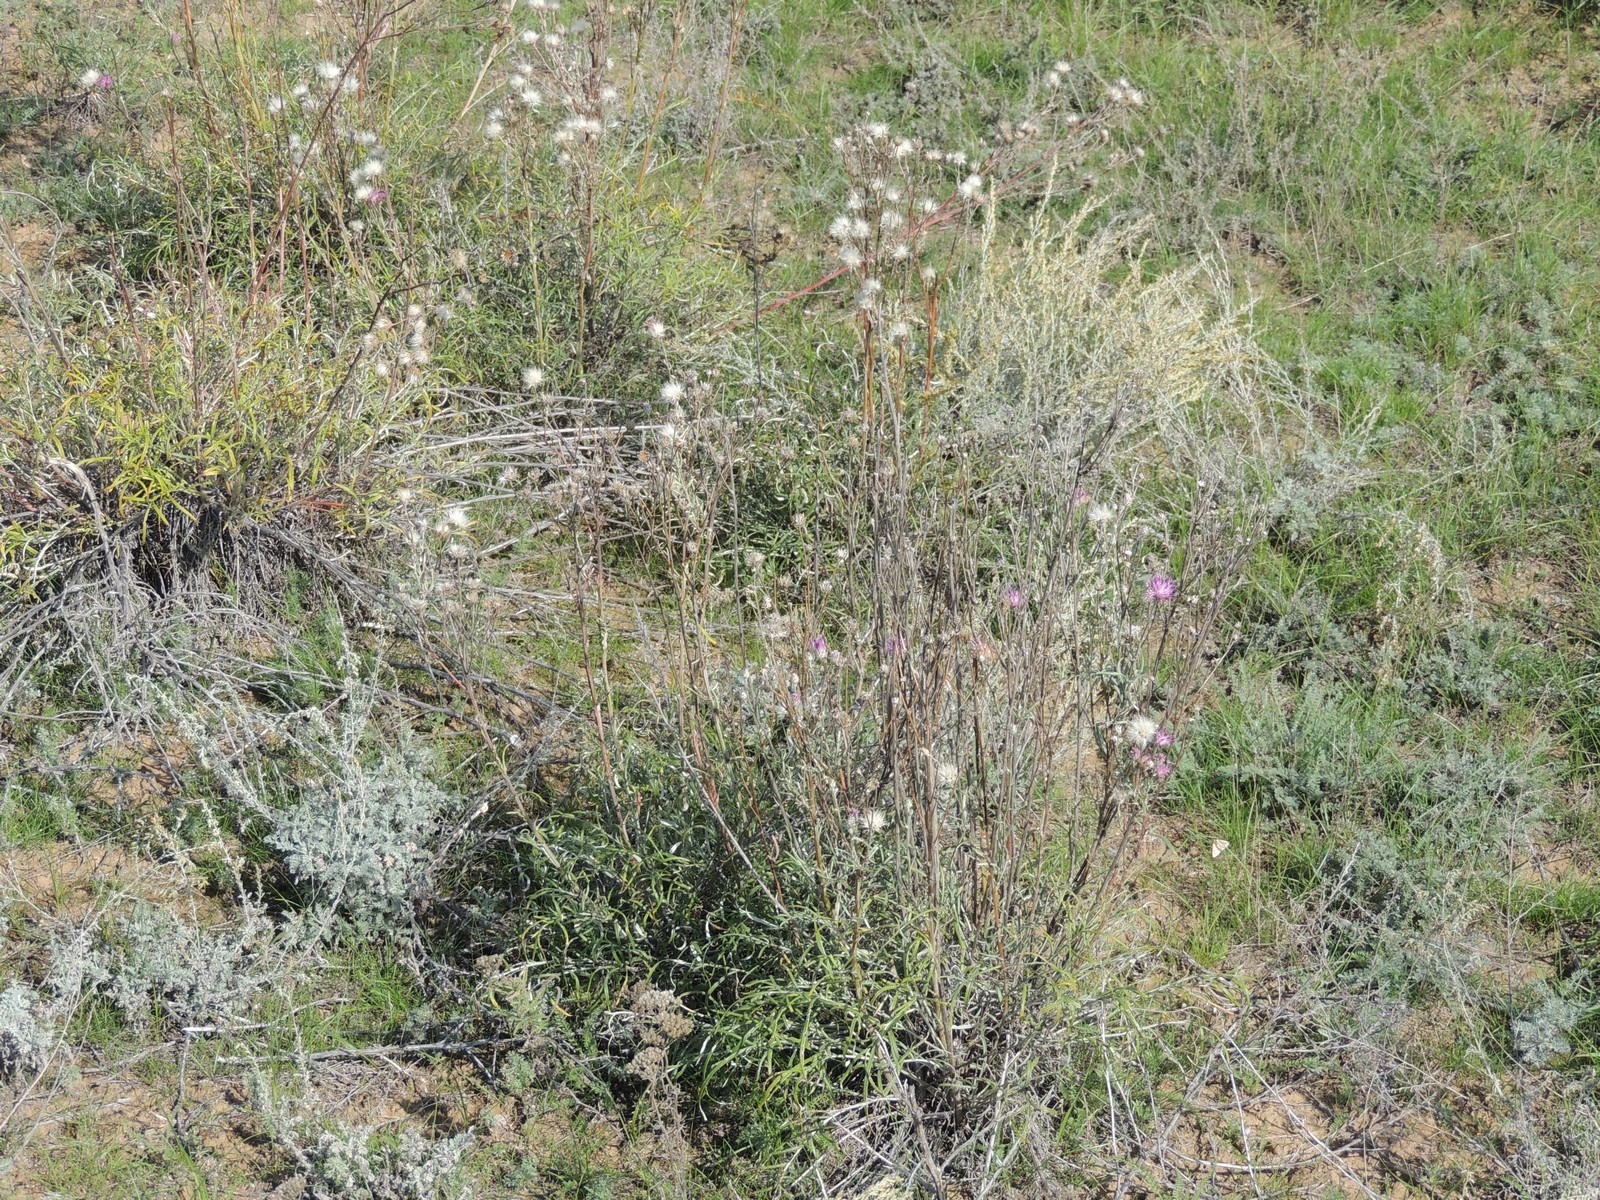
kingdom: Plantae
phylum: Tracheophyta
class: Magnoliopsida
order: Asterales
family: Asteraceae
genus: Jurinea
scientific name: Jurinea polyclonos
